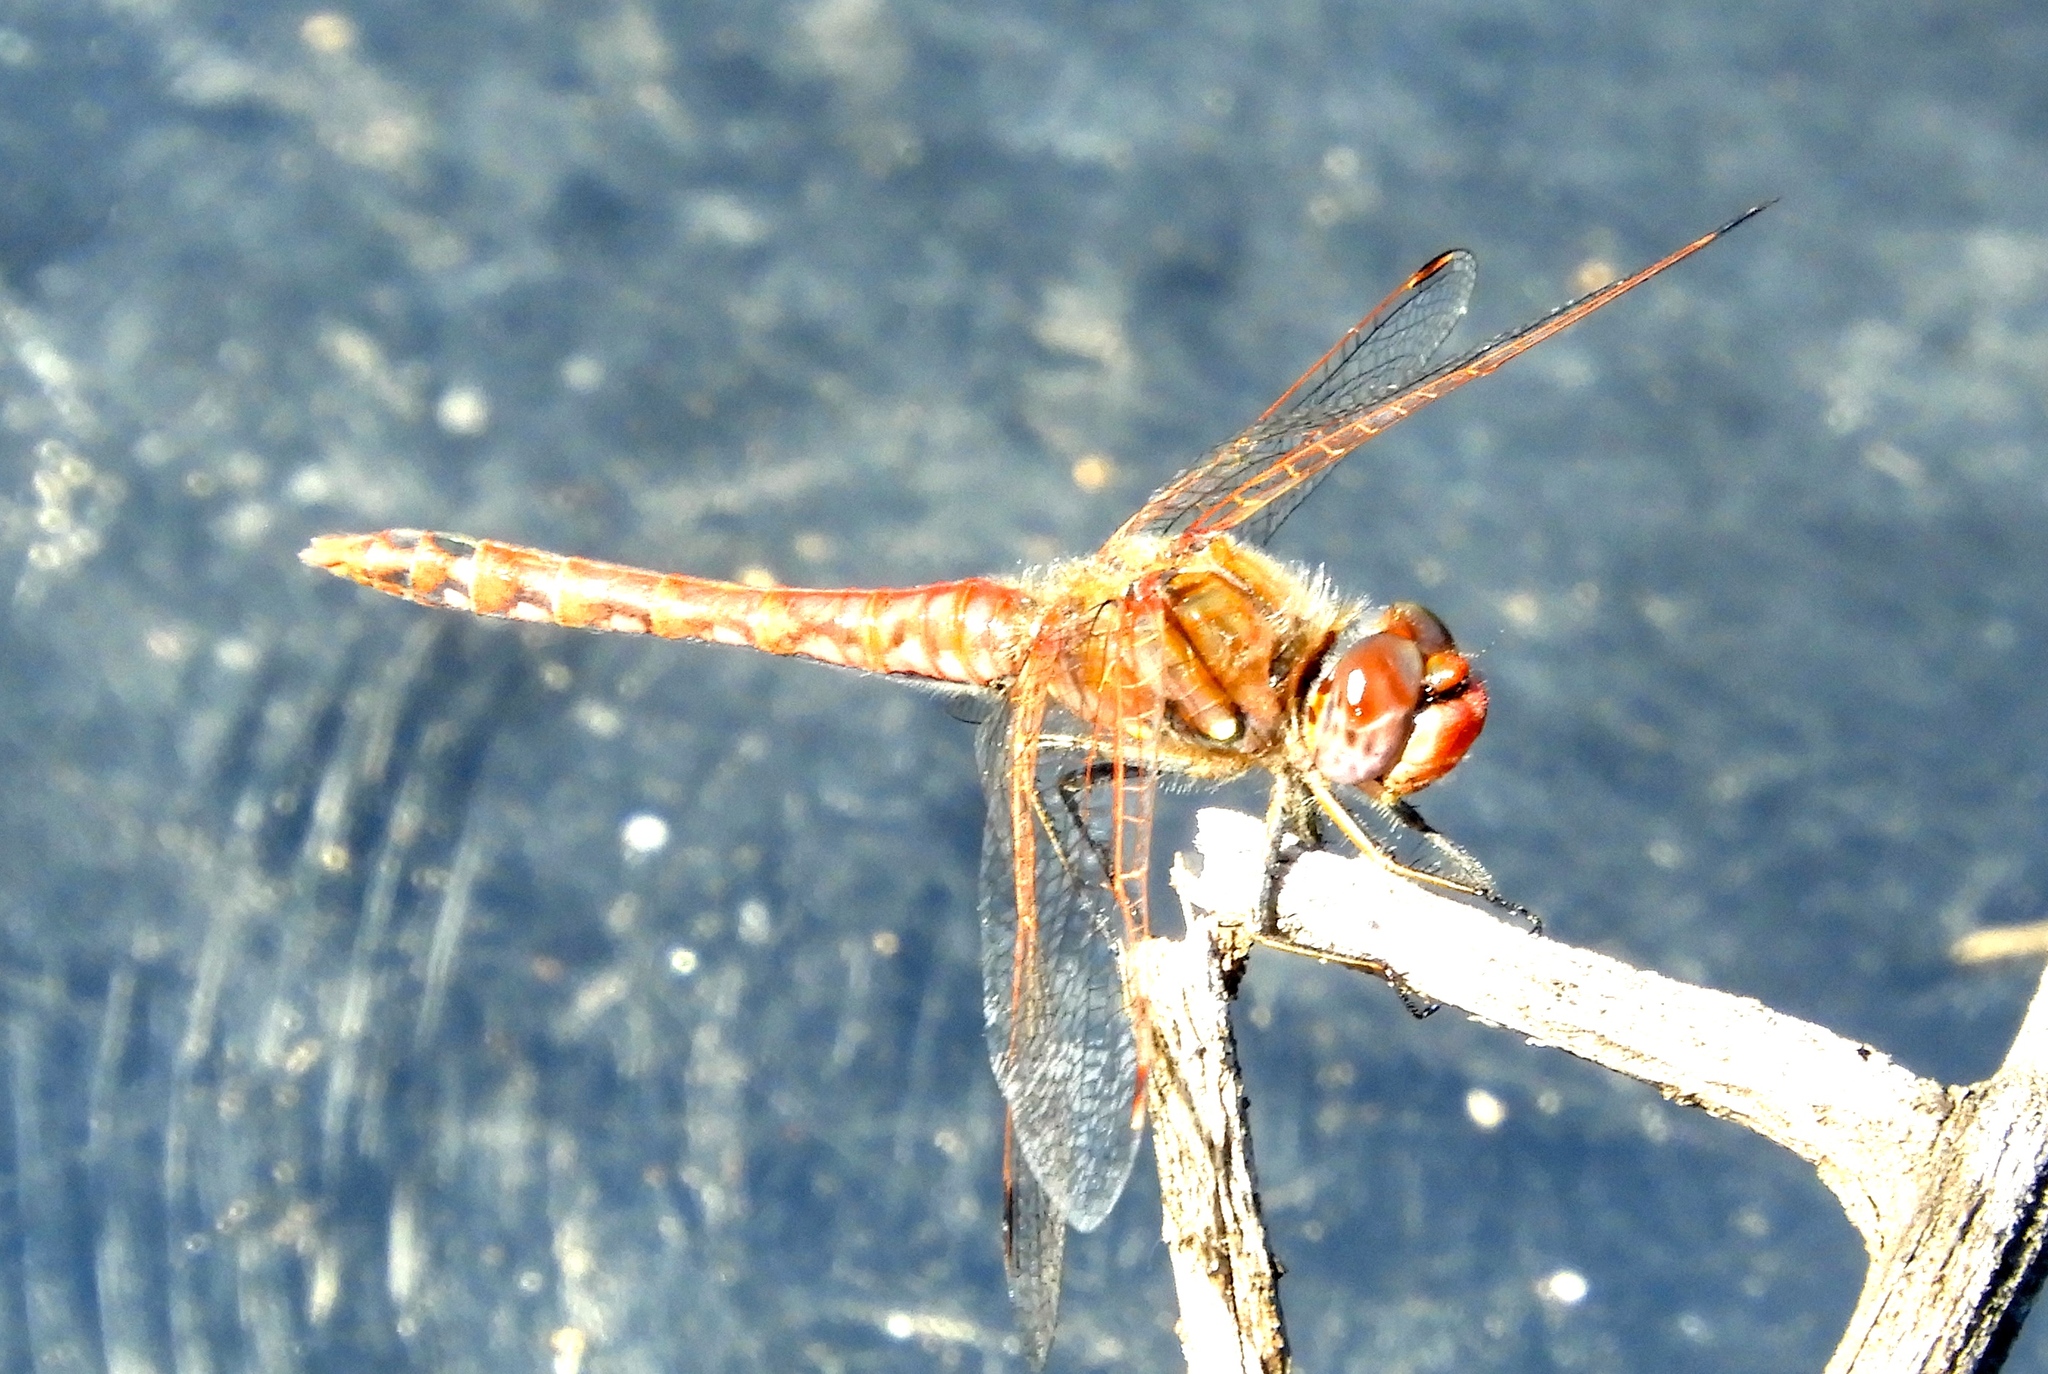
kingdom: Animalia
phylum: Arthropoda
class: Insecta
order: Odonata
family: Libellulidae
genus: Sympetrum
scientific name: Sympetrum corruptum
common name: Variegated meadowhawk
